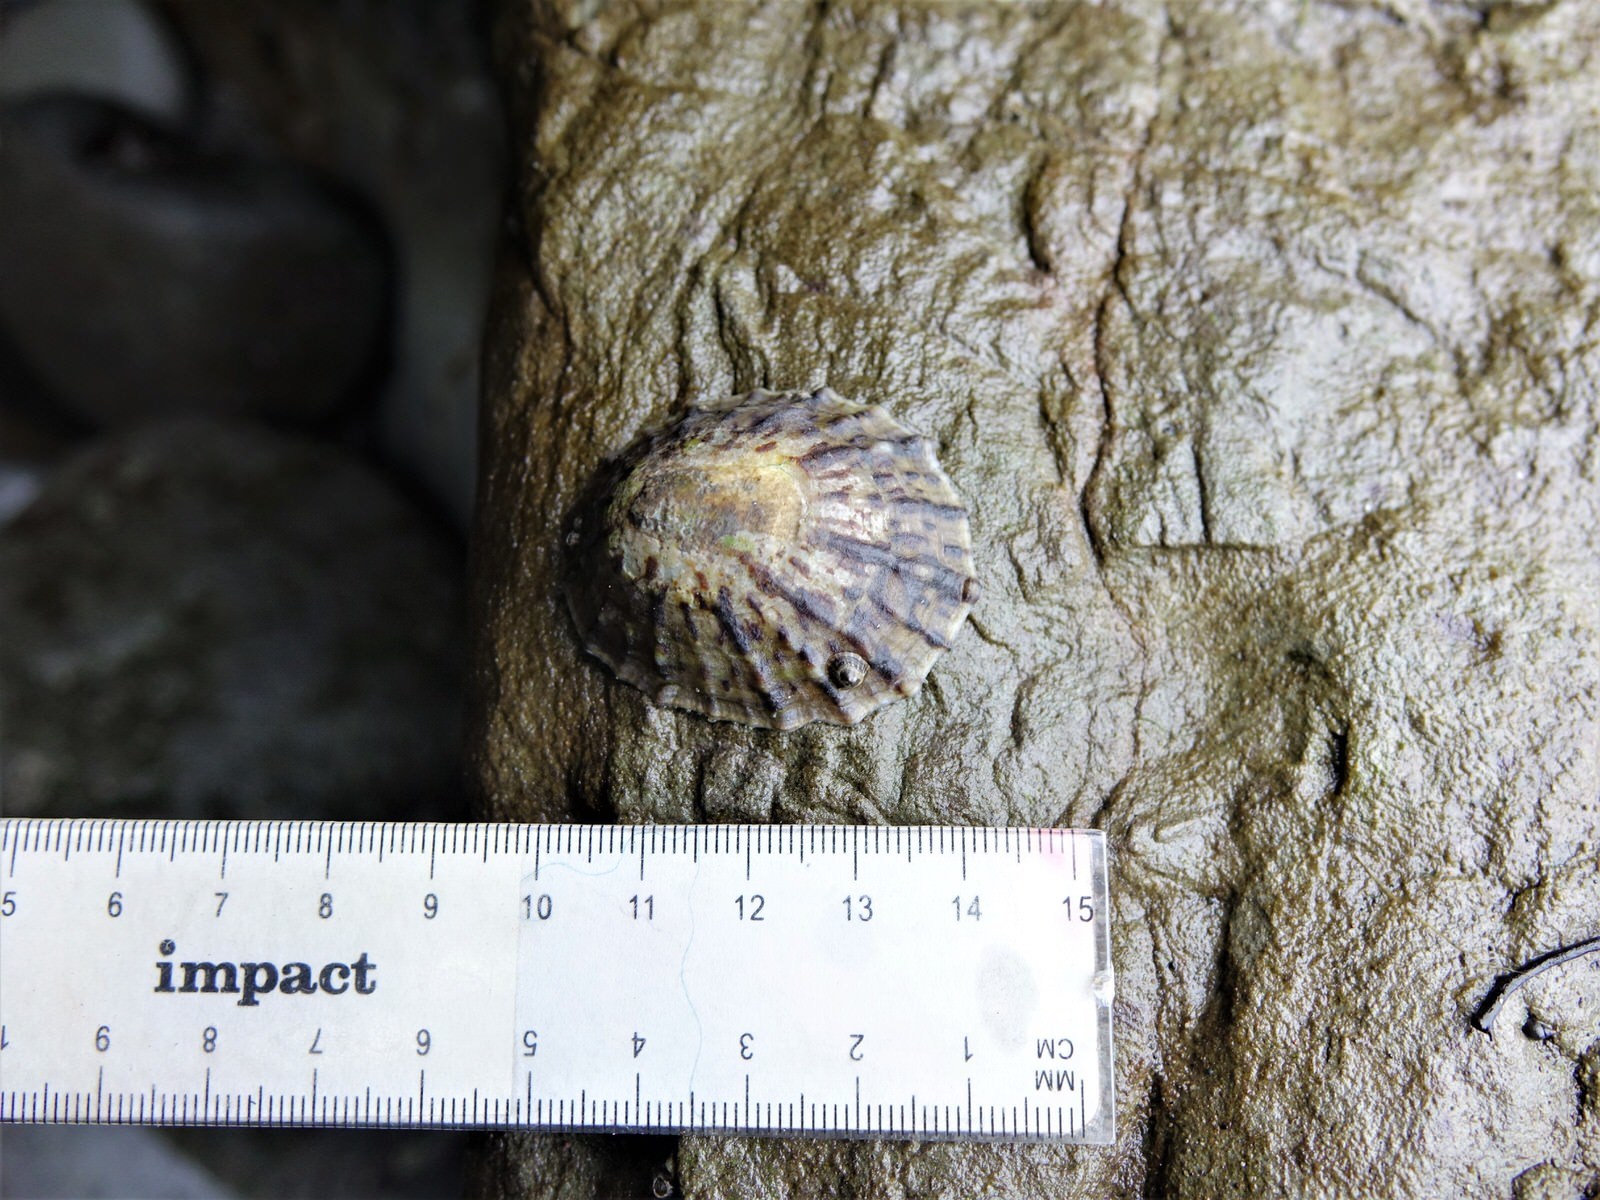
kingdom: Animalia
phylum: Mollusca
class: Gastropoda
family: Nacellidae
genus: Cellana
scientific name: Cellana radians
